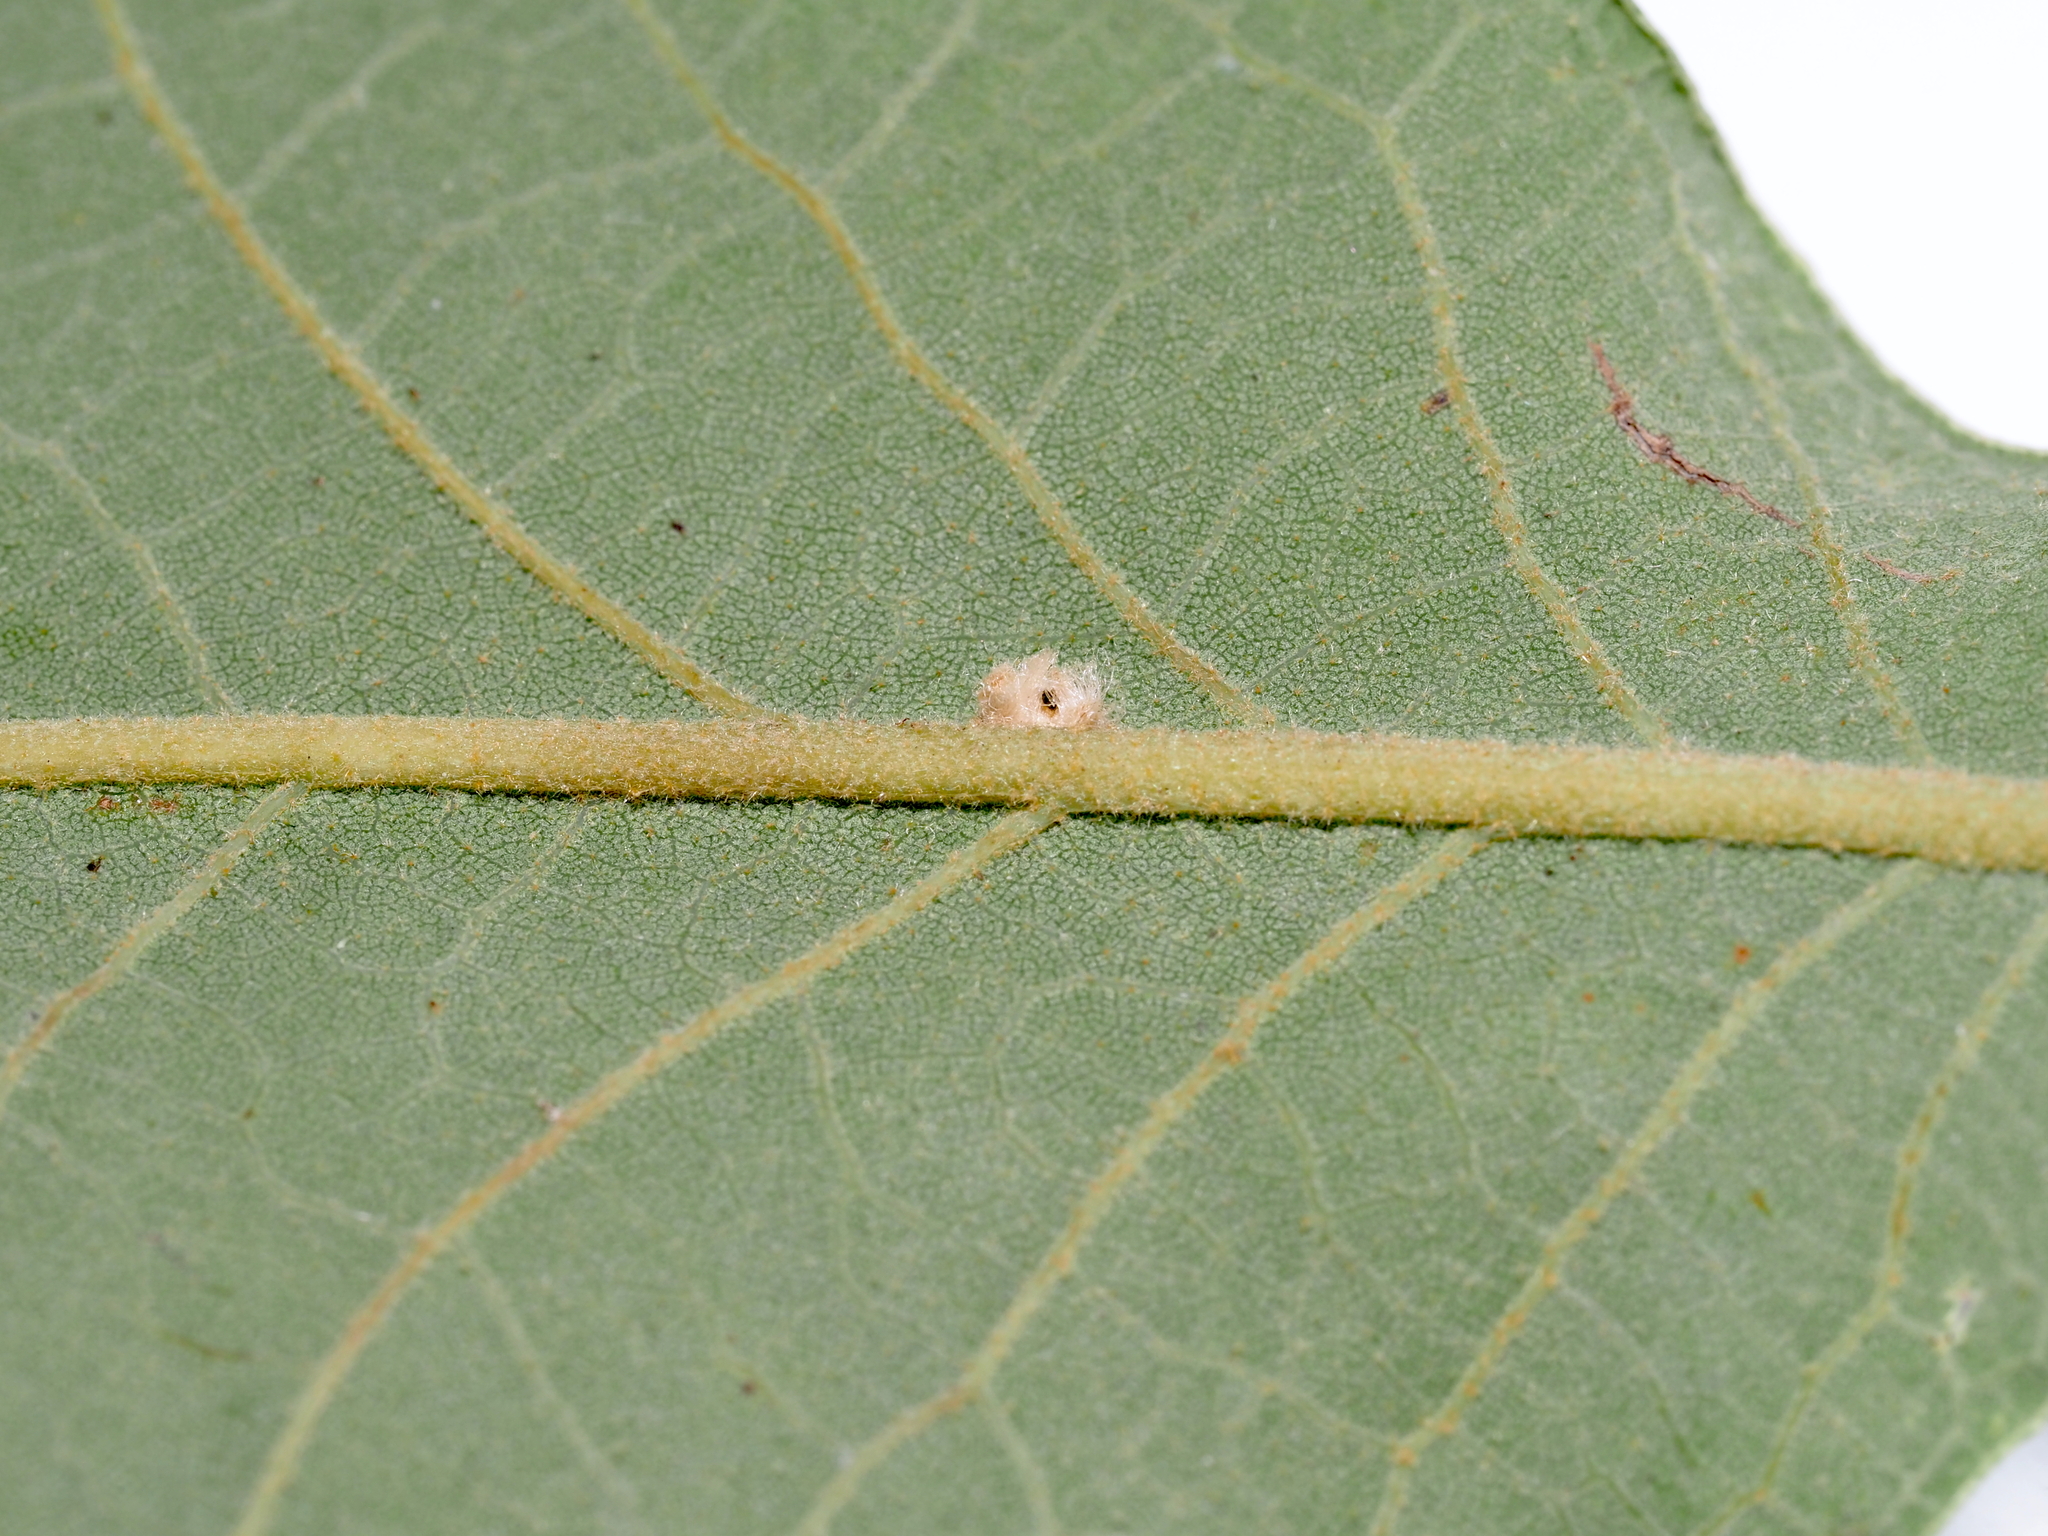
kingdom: Animalia
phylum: Arthropoda
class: Insecta
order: Hymenoptera
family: Cynipidae
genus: Andricus
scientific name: Andricus Druon pattoni
